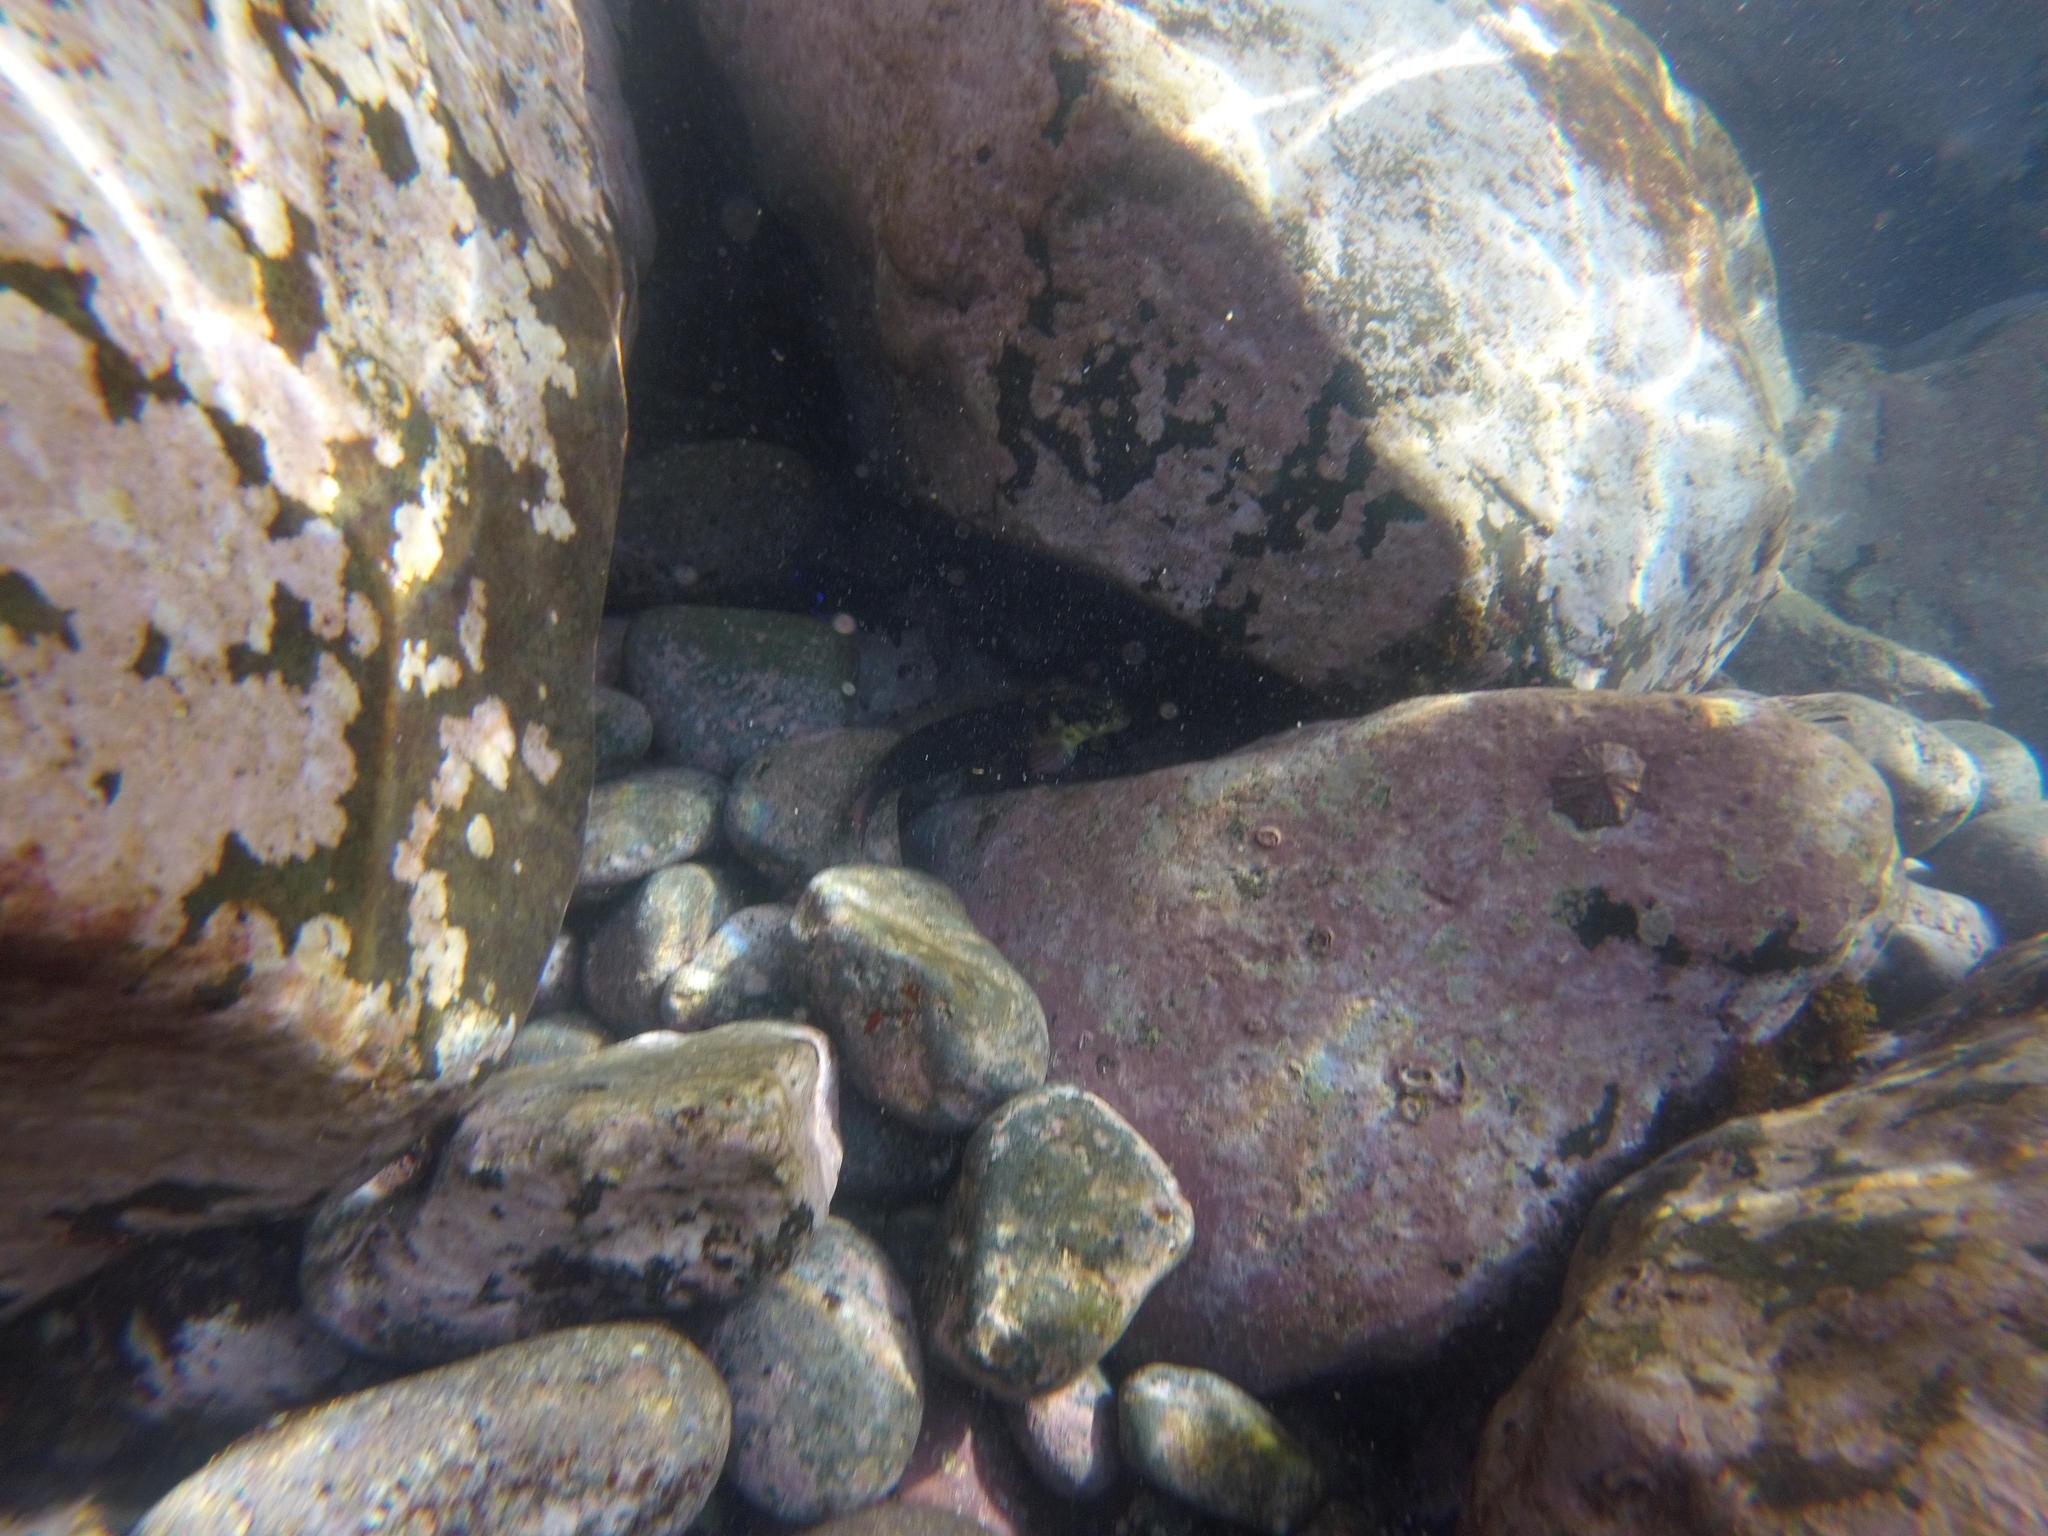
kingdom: Animalia
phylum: Chordata
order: Perciformes
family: Blenniidae
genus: Ophioblennius
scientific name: Ophioblennius atlanticus
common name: Redlip blenny
